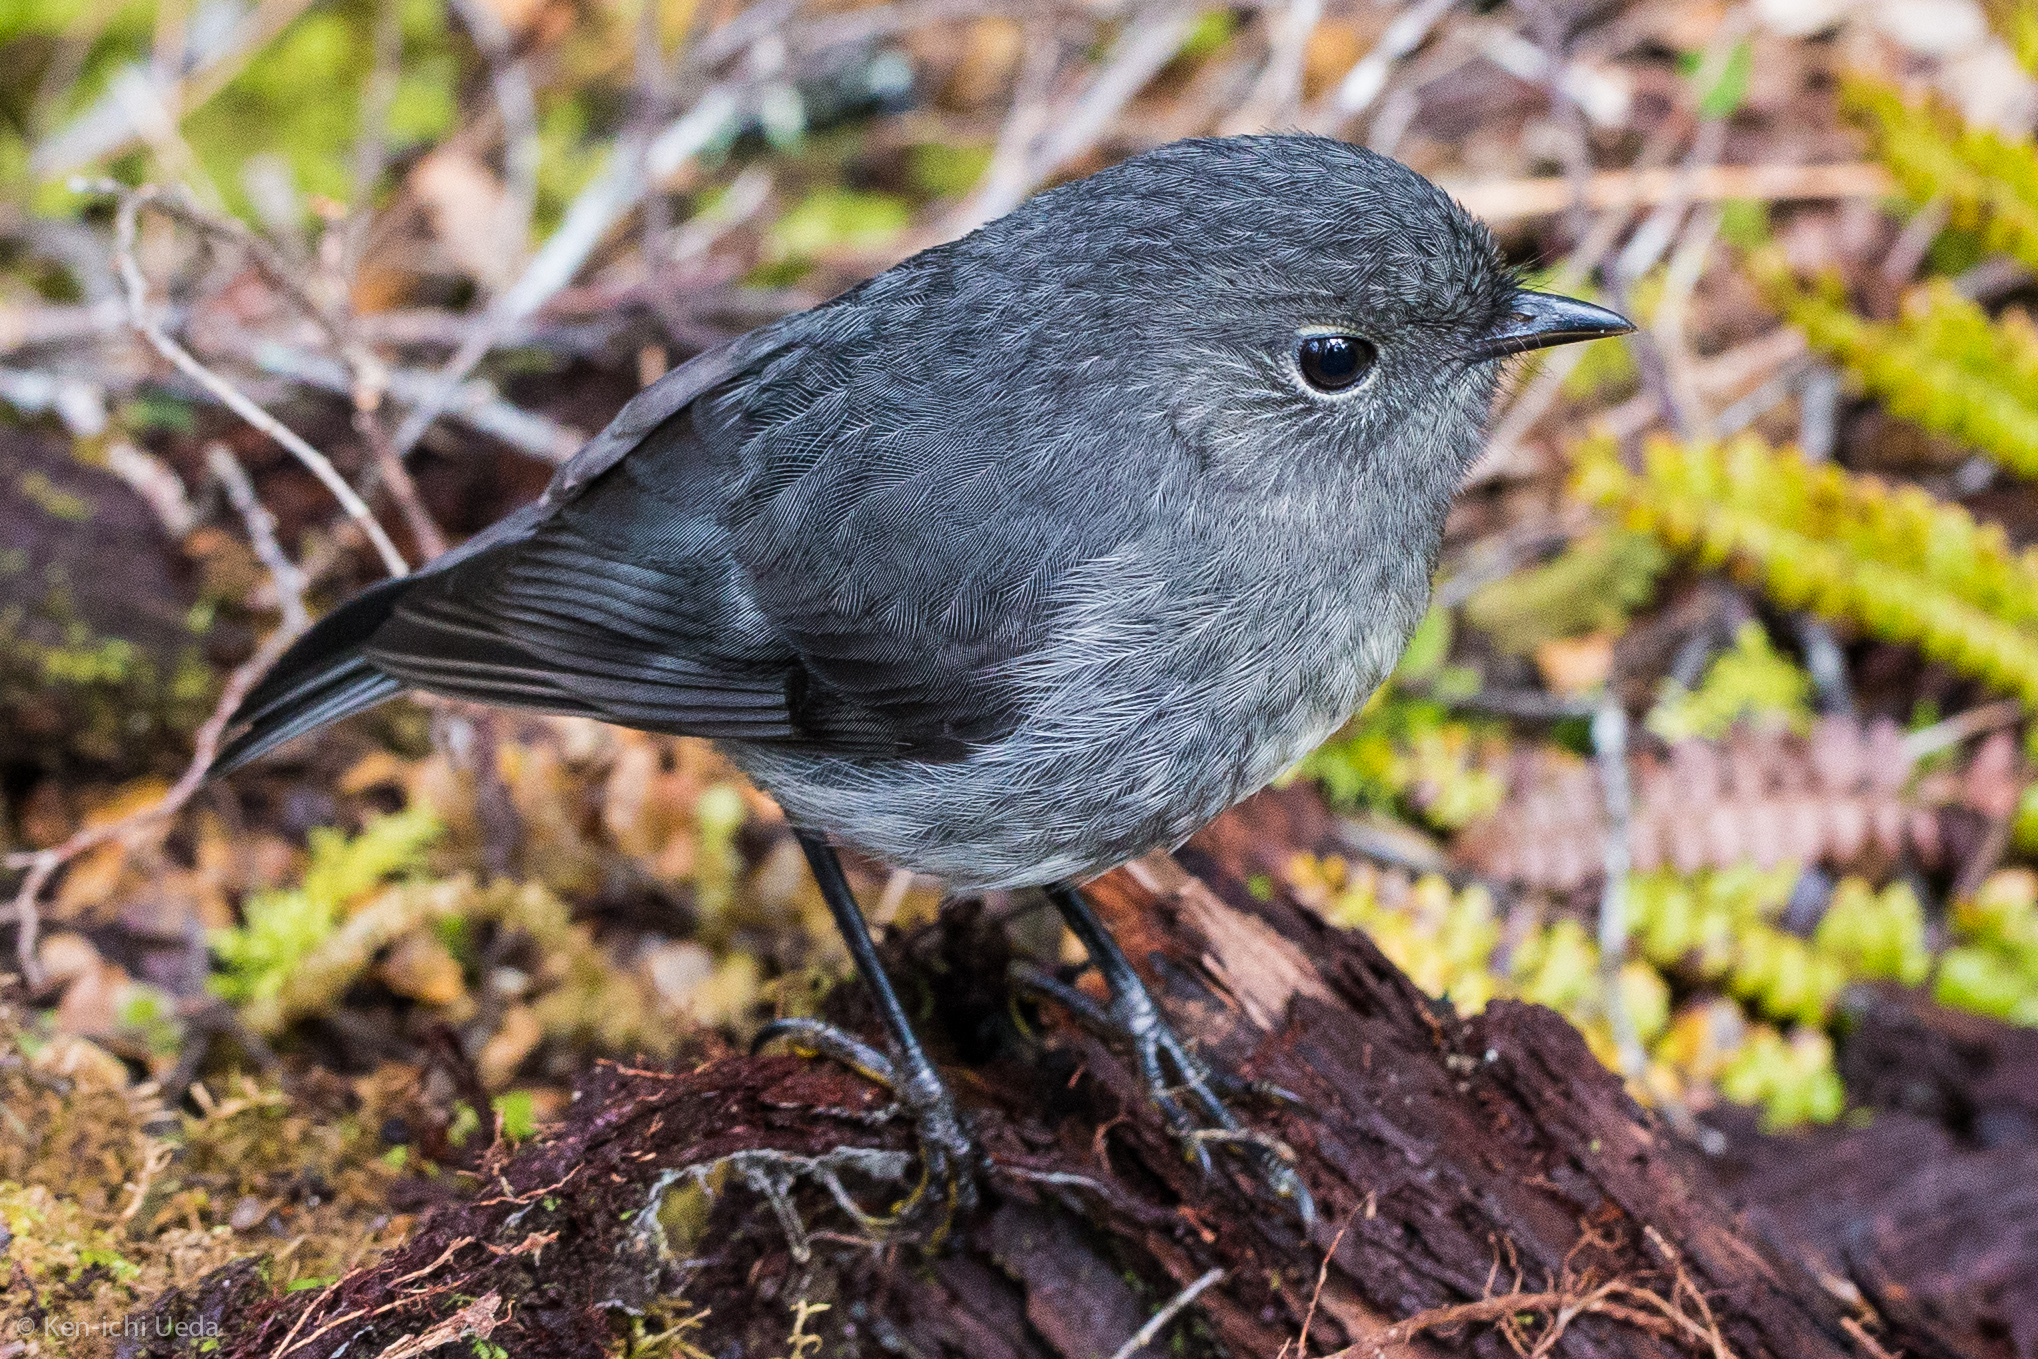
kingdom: Animalia
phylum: Chordata
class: Aves
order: Passeriformes
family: Petroicidae
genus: Petroica
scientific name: Petroica australis
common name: New zealand robin
